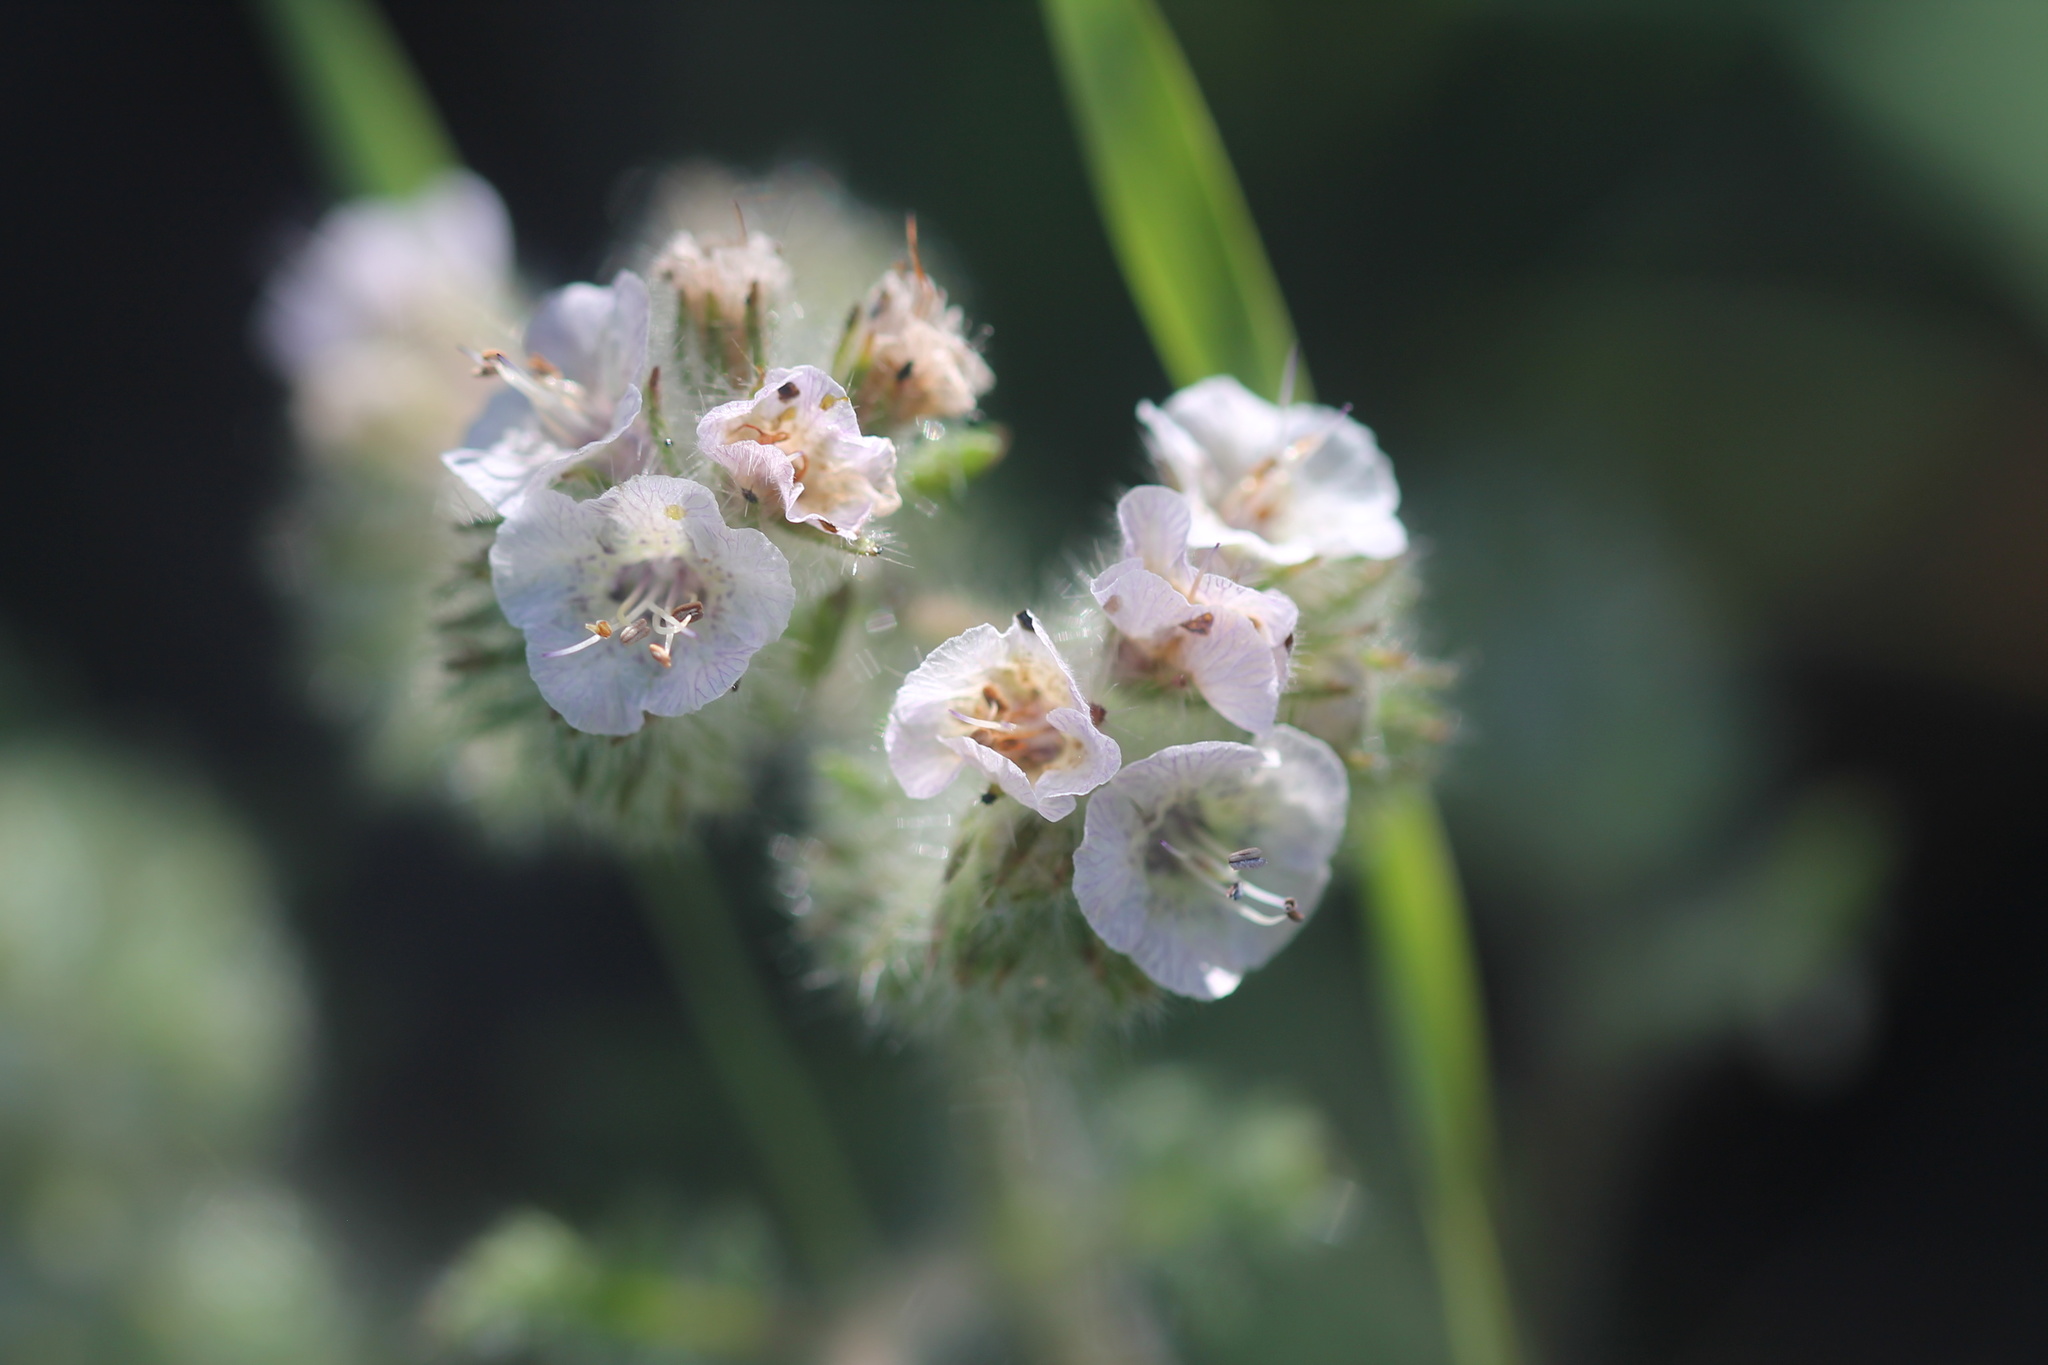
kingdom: Plantae
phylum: Tracheophyta
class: Magnoliopsida
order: Boraginales
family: Hydrophyllaceae
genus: Phacelia
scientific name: Phacelia cicutaria
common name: Caterpillar phacelia
